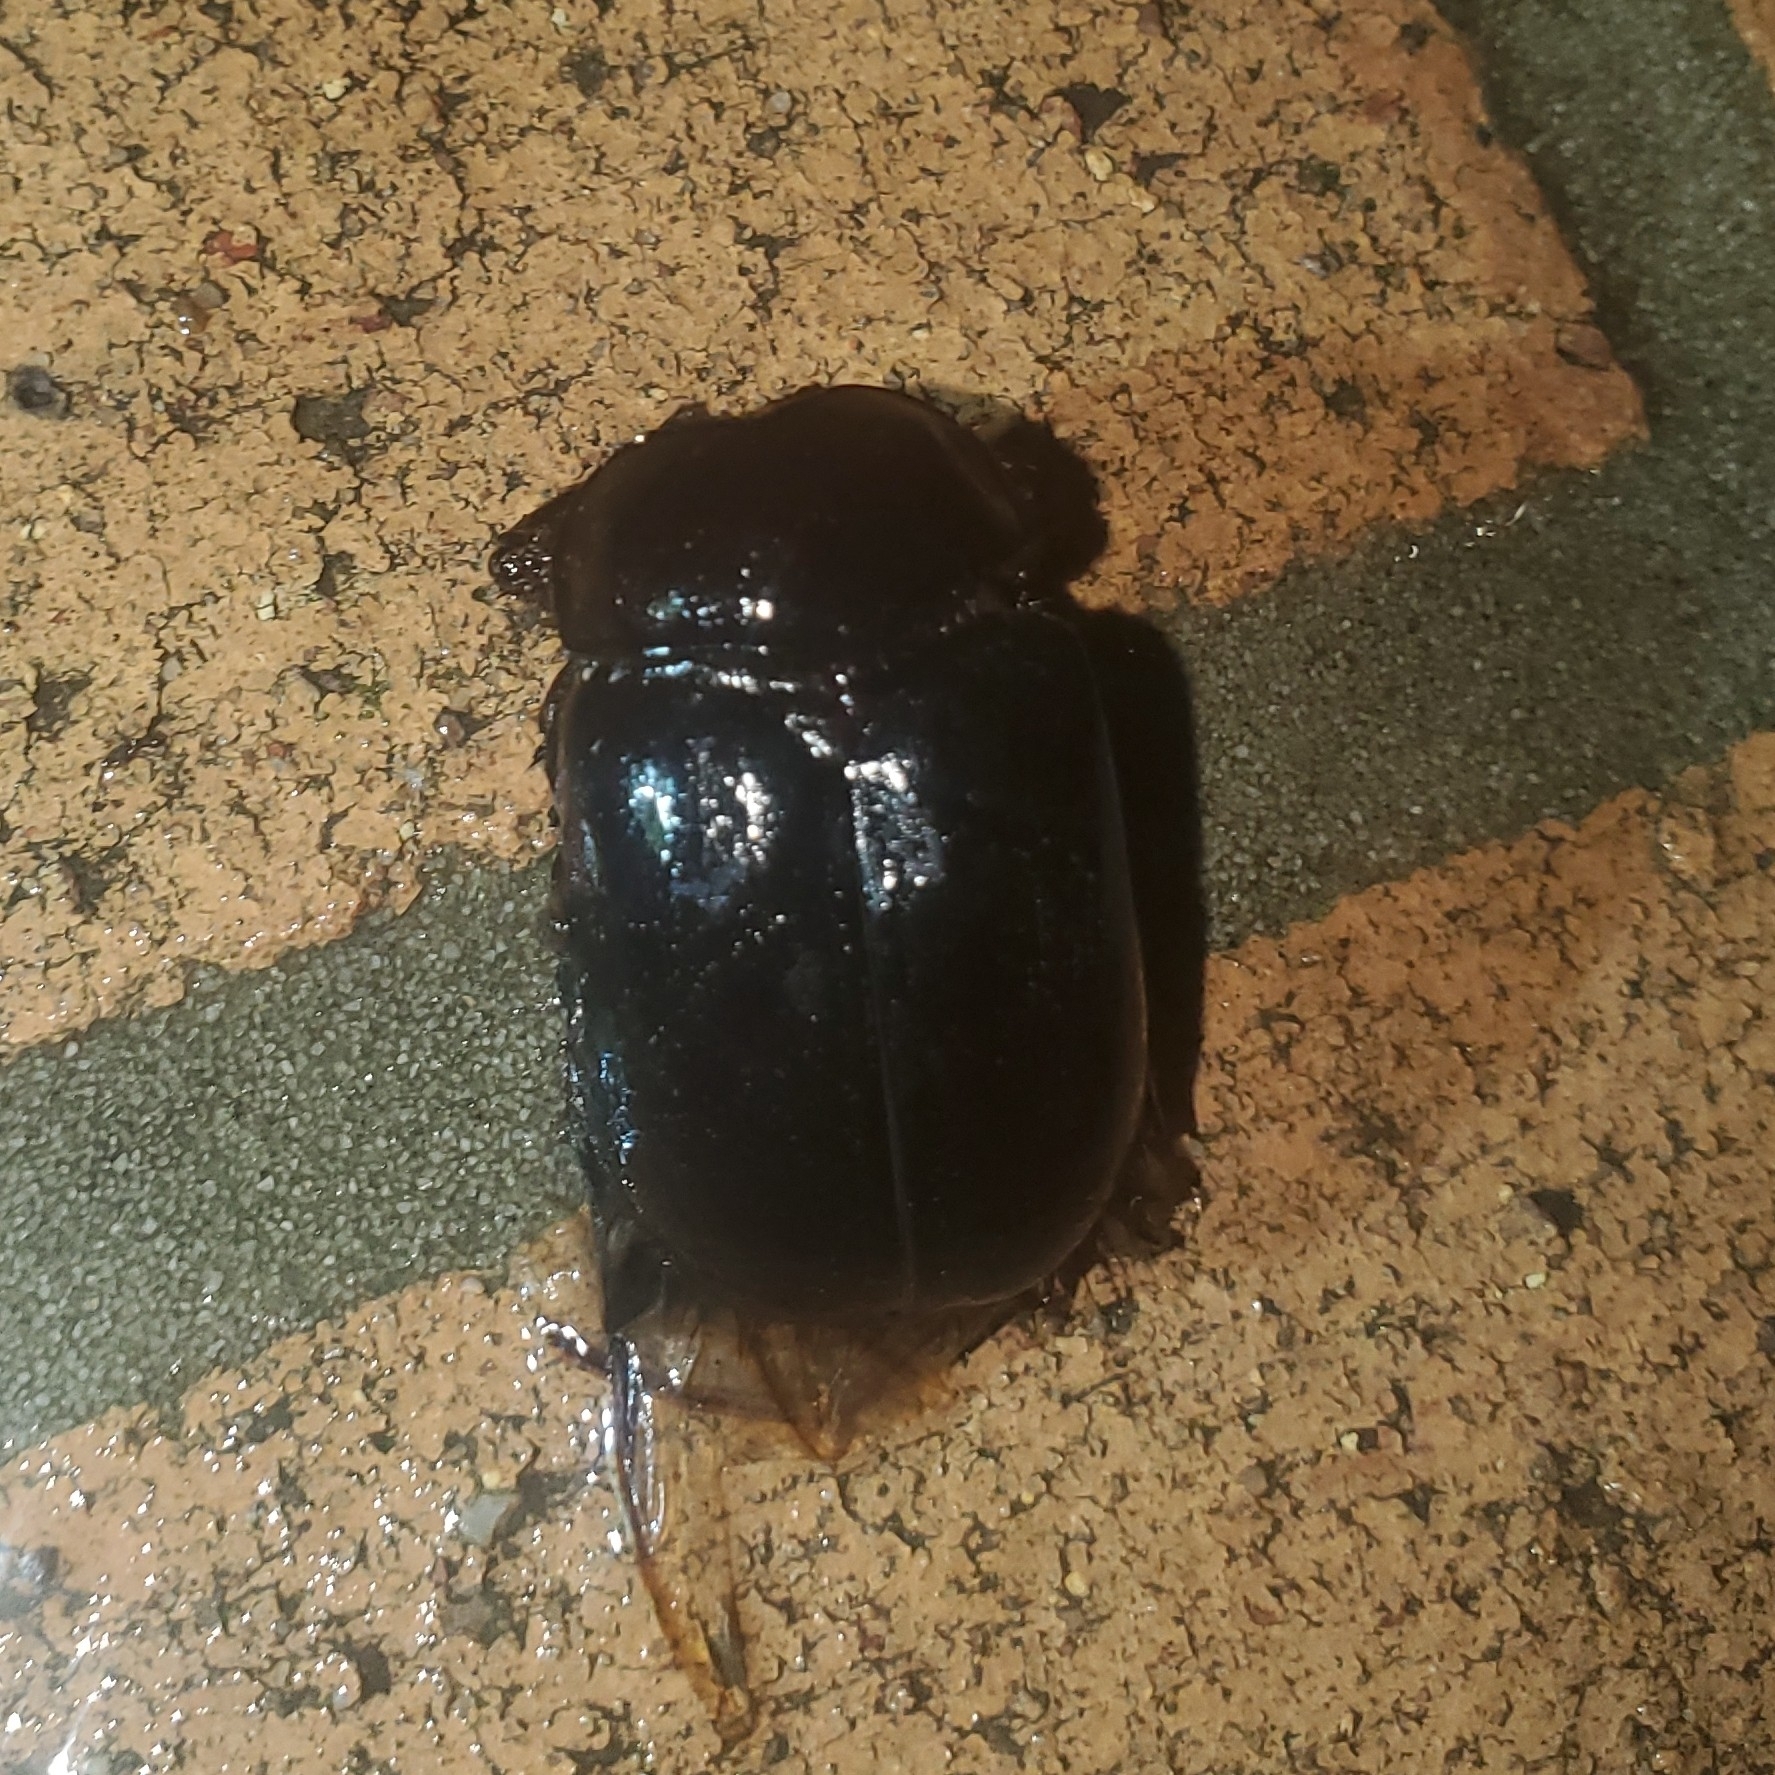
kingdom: Animalia
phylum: Arthropoda
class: Insecta
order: Coleoptera
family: Pleocomidae
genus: Pleocoma
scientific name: Pleocoma puncticollis
